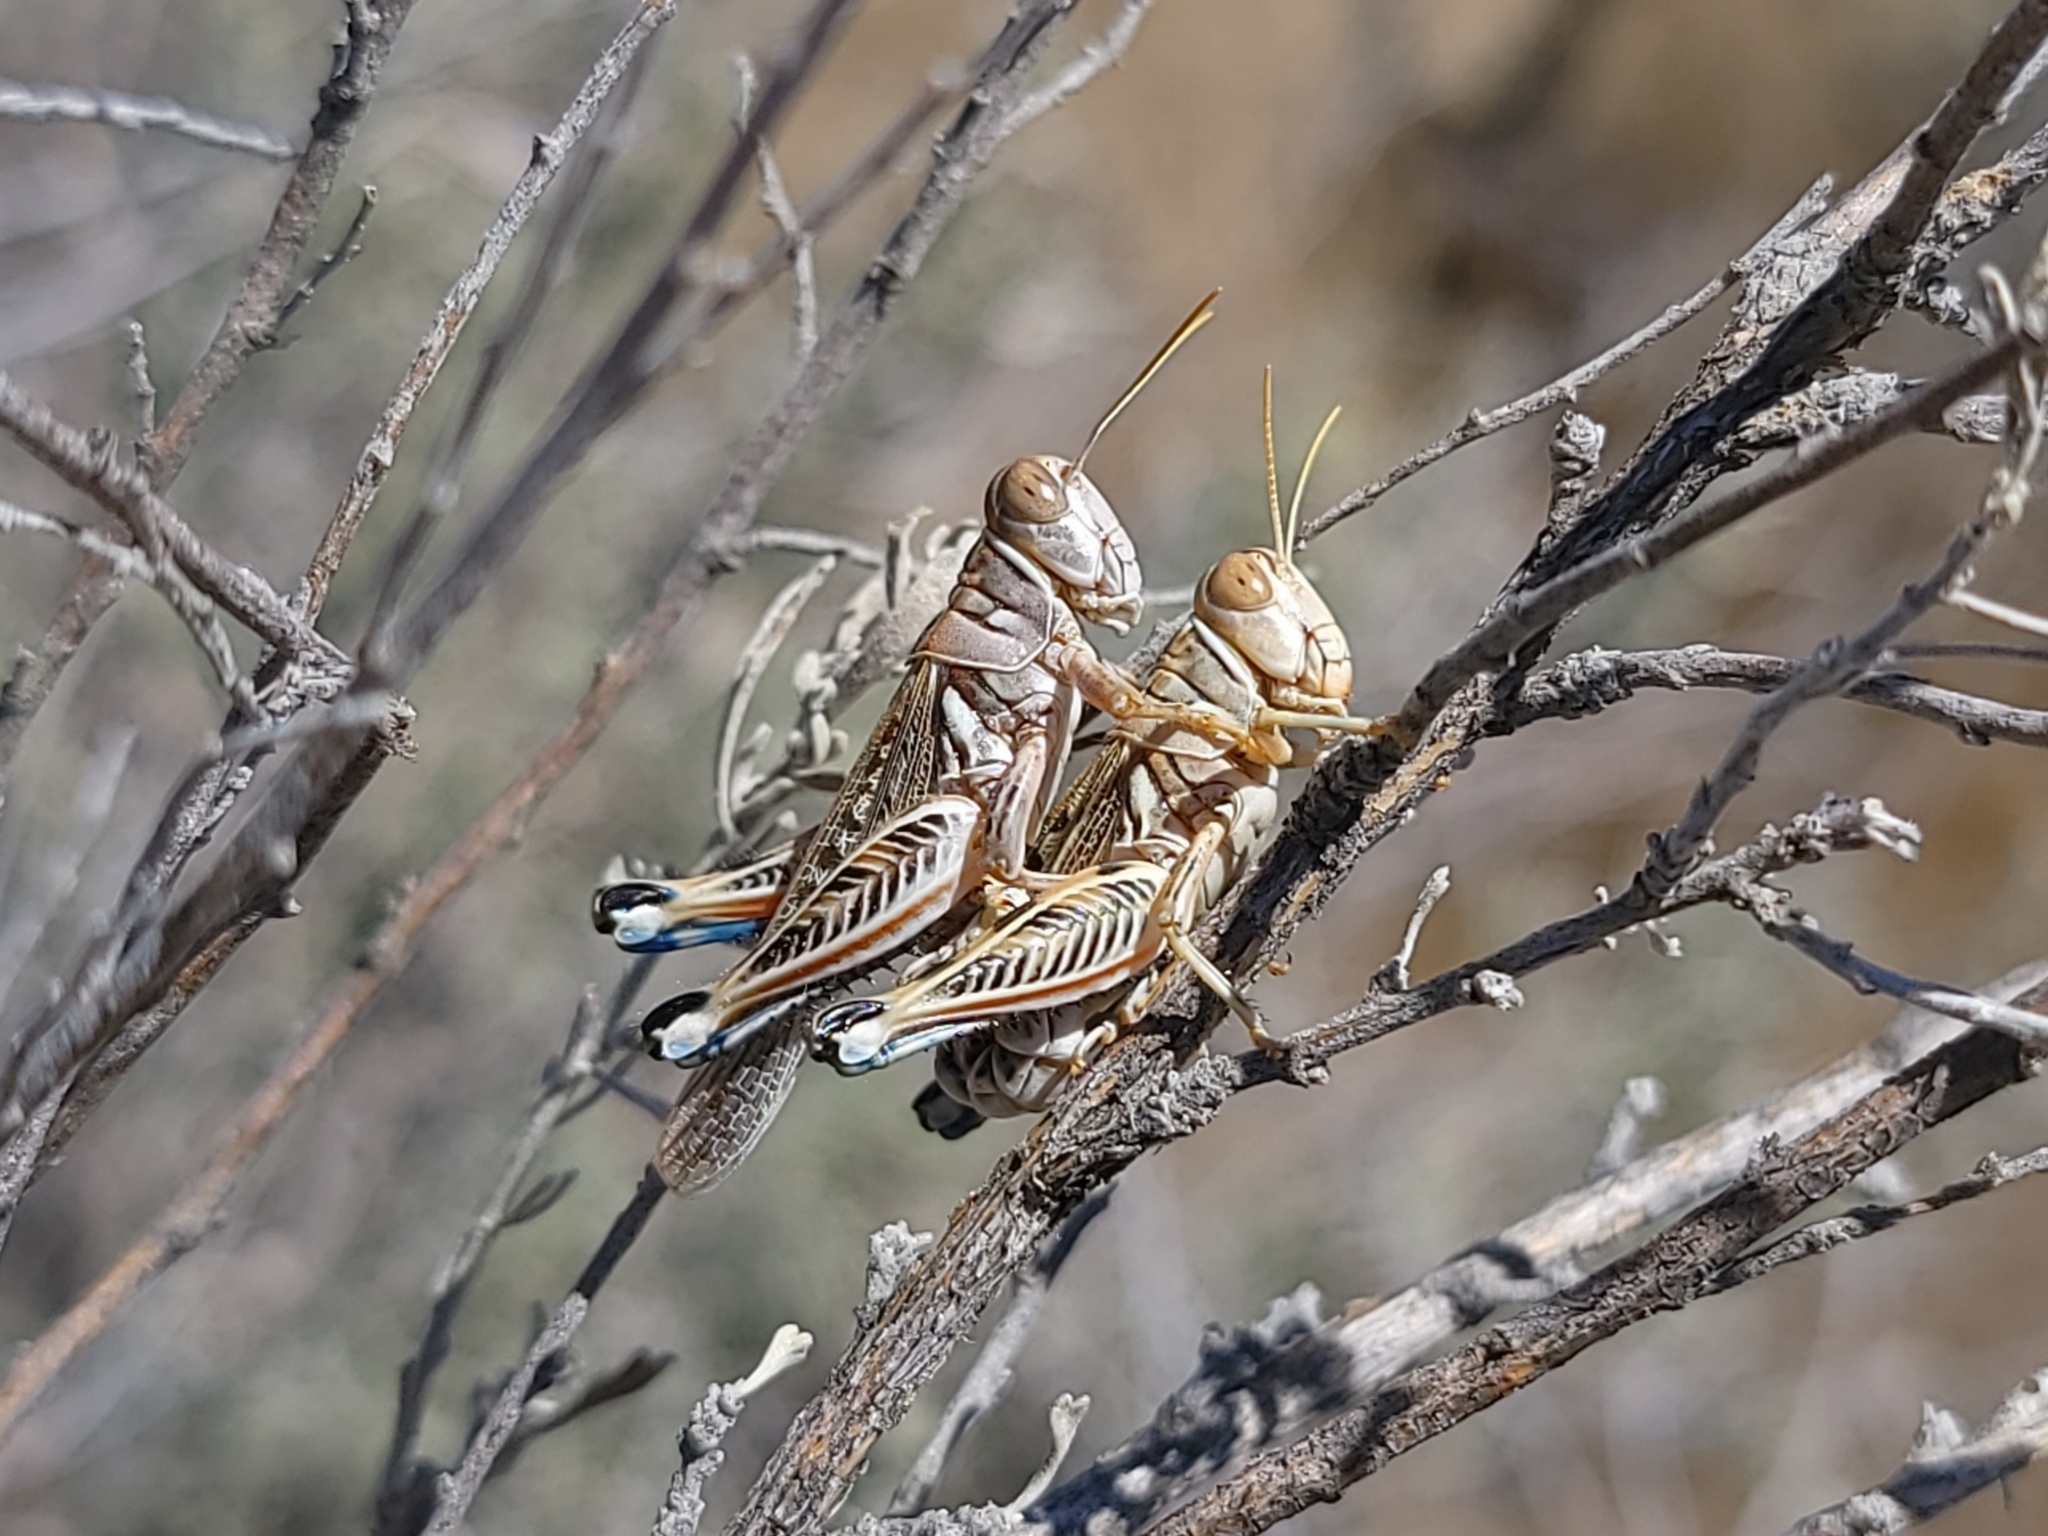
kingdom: Animalia
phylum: Arthropoda
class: Insecta
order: Orthoptera
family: Acrididae
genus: Oedaleonotus
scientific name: Oedaleonotus enigma
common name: Valley grasshopper
